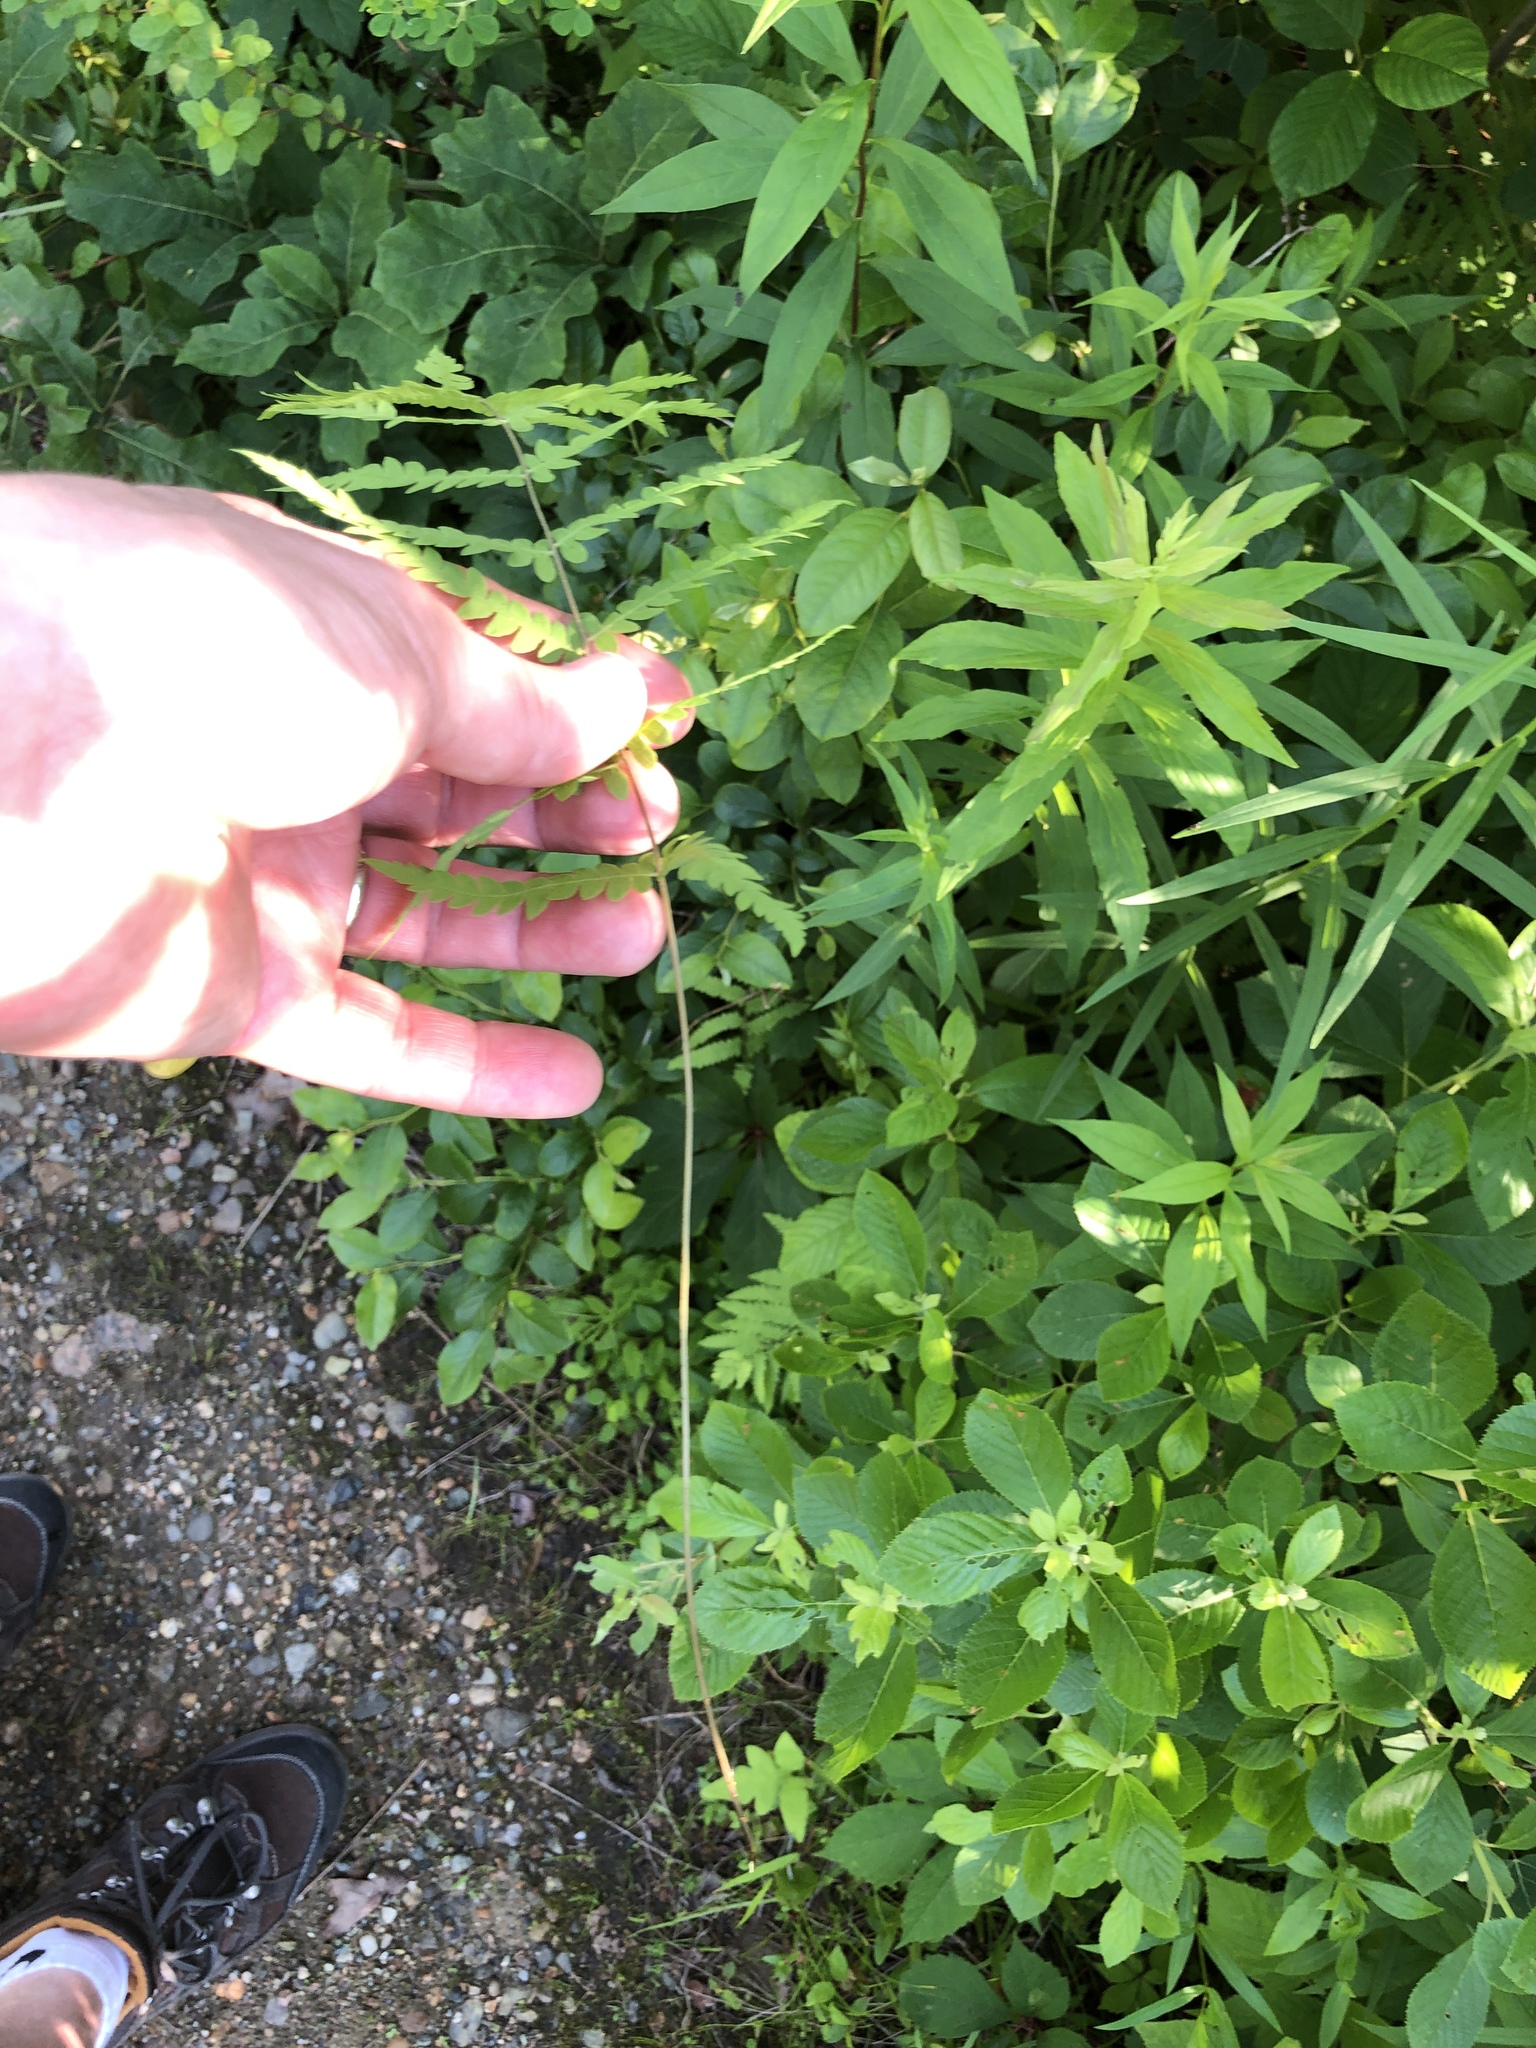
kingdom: Plantae
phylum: Tracheophyta
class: Polypodiopsida
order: Polypodiales
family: Thelypteridaceae
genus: Thelypteris
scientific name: Thelypteris palustris
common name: Marsh fern
